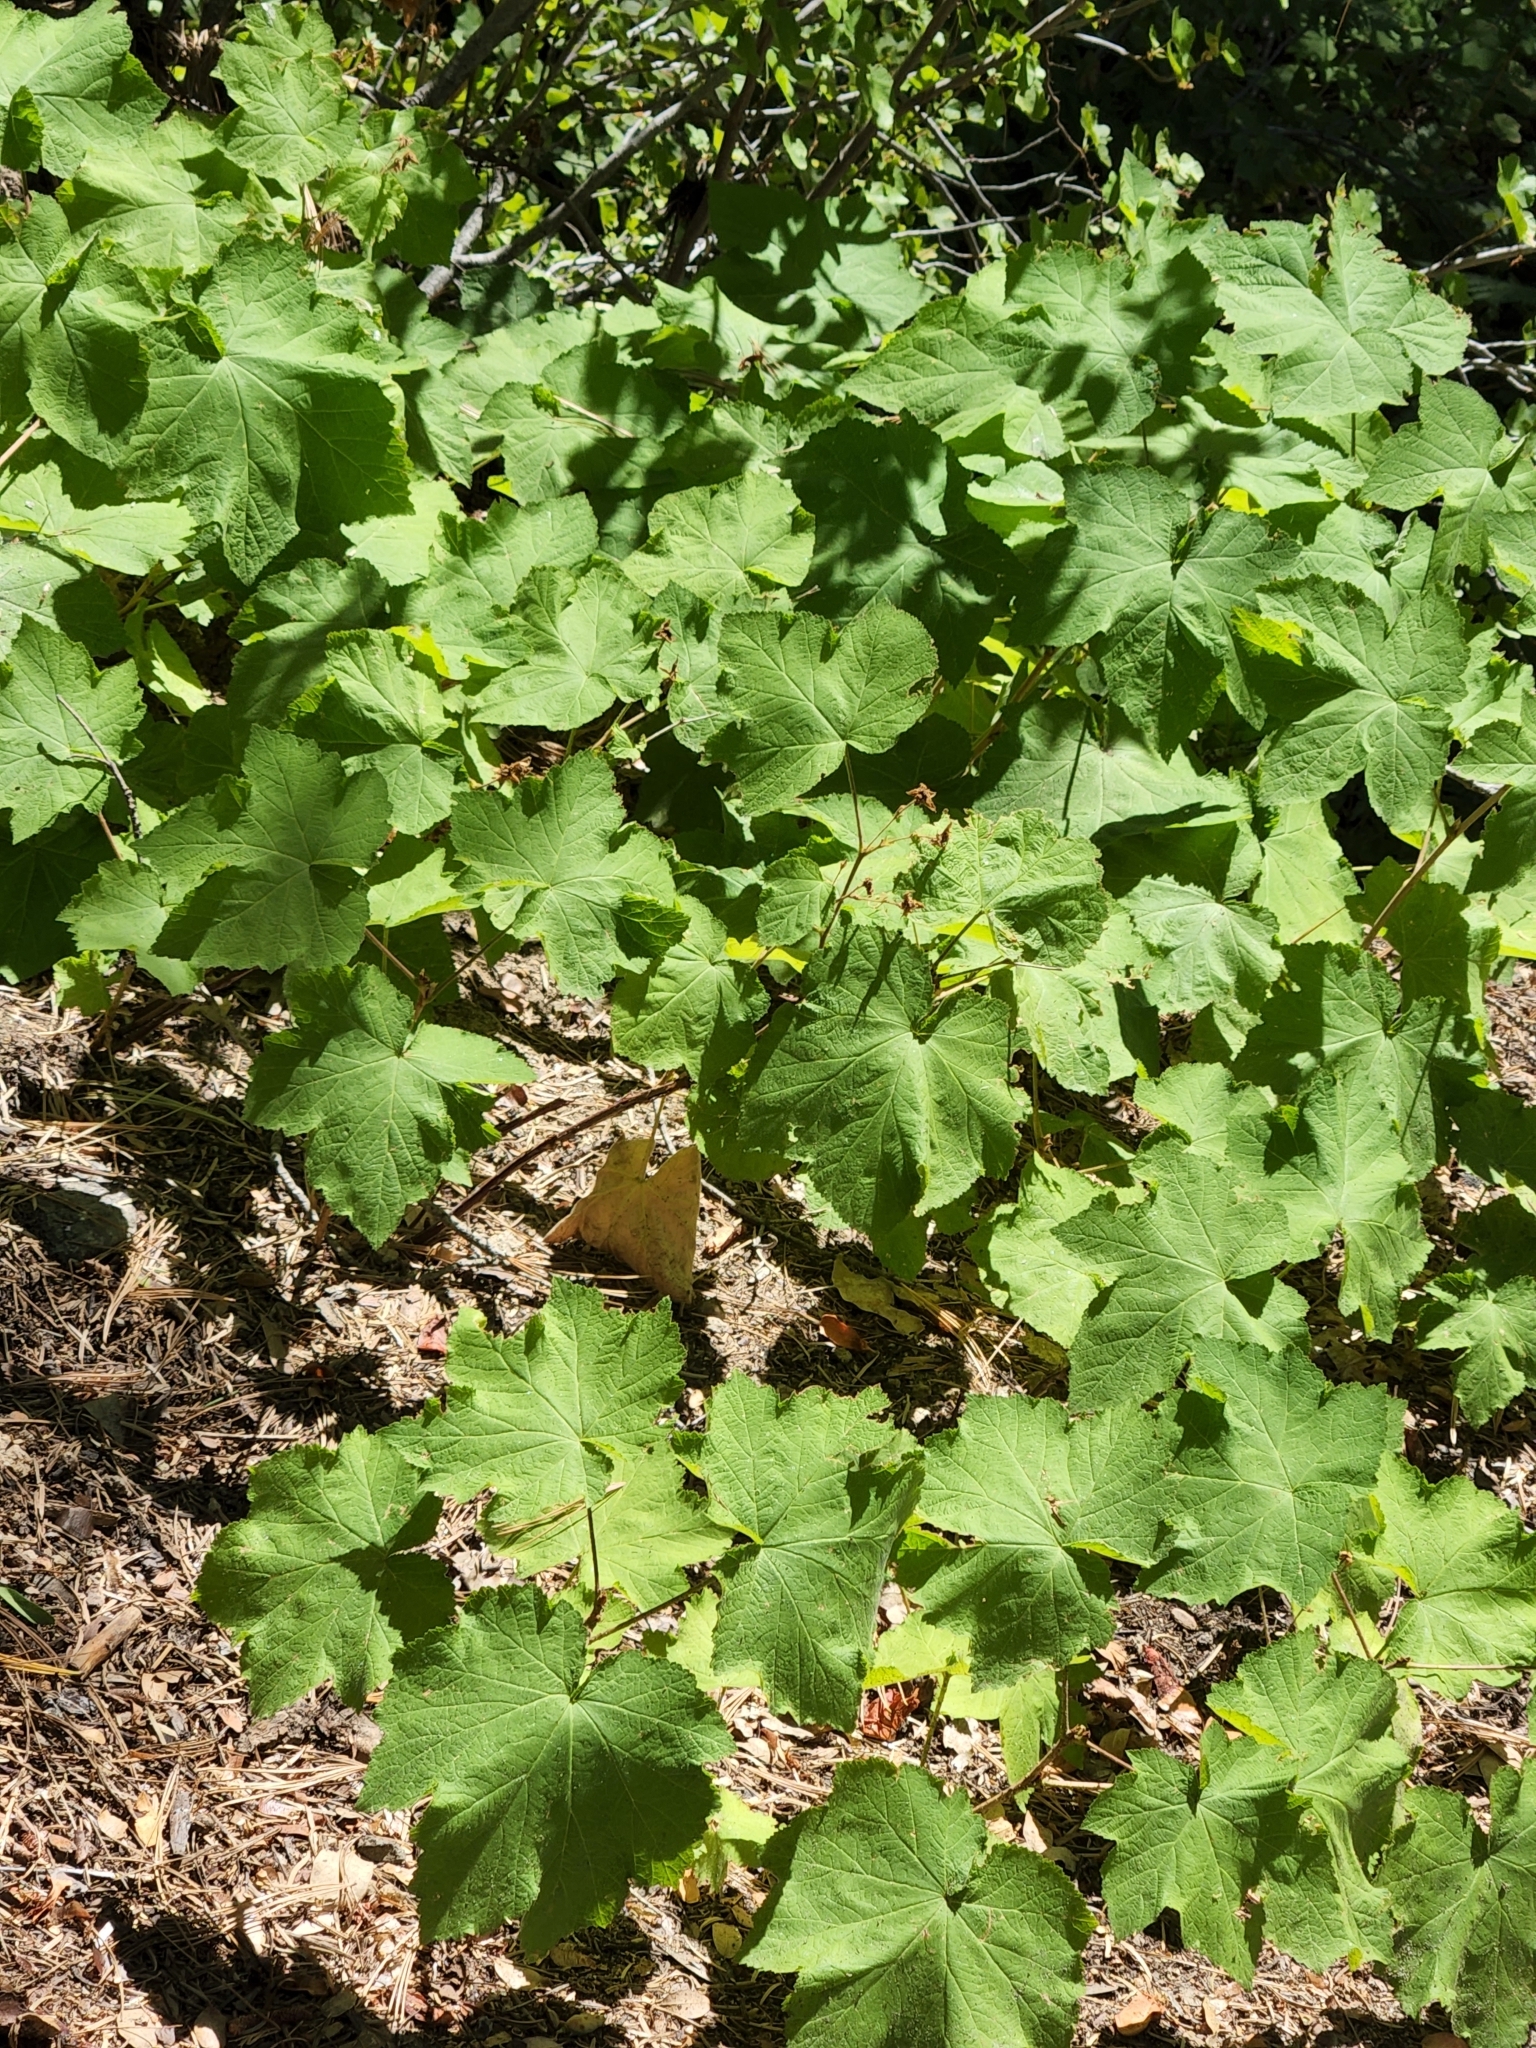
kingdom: Plantae
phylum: Tracheophyta
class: Magnoliopsida
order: Rosales
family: Rosaceae
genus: Rubus
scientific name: Rubus parviflorus
